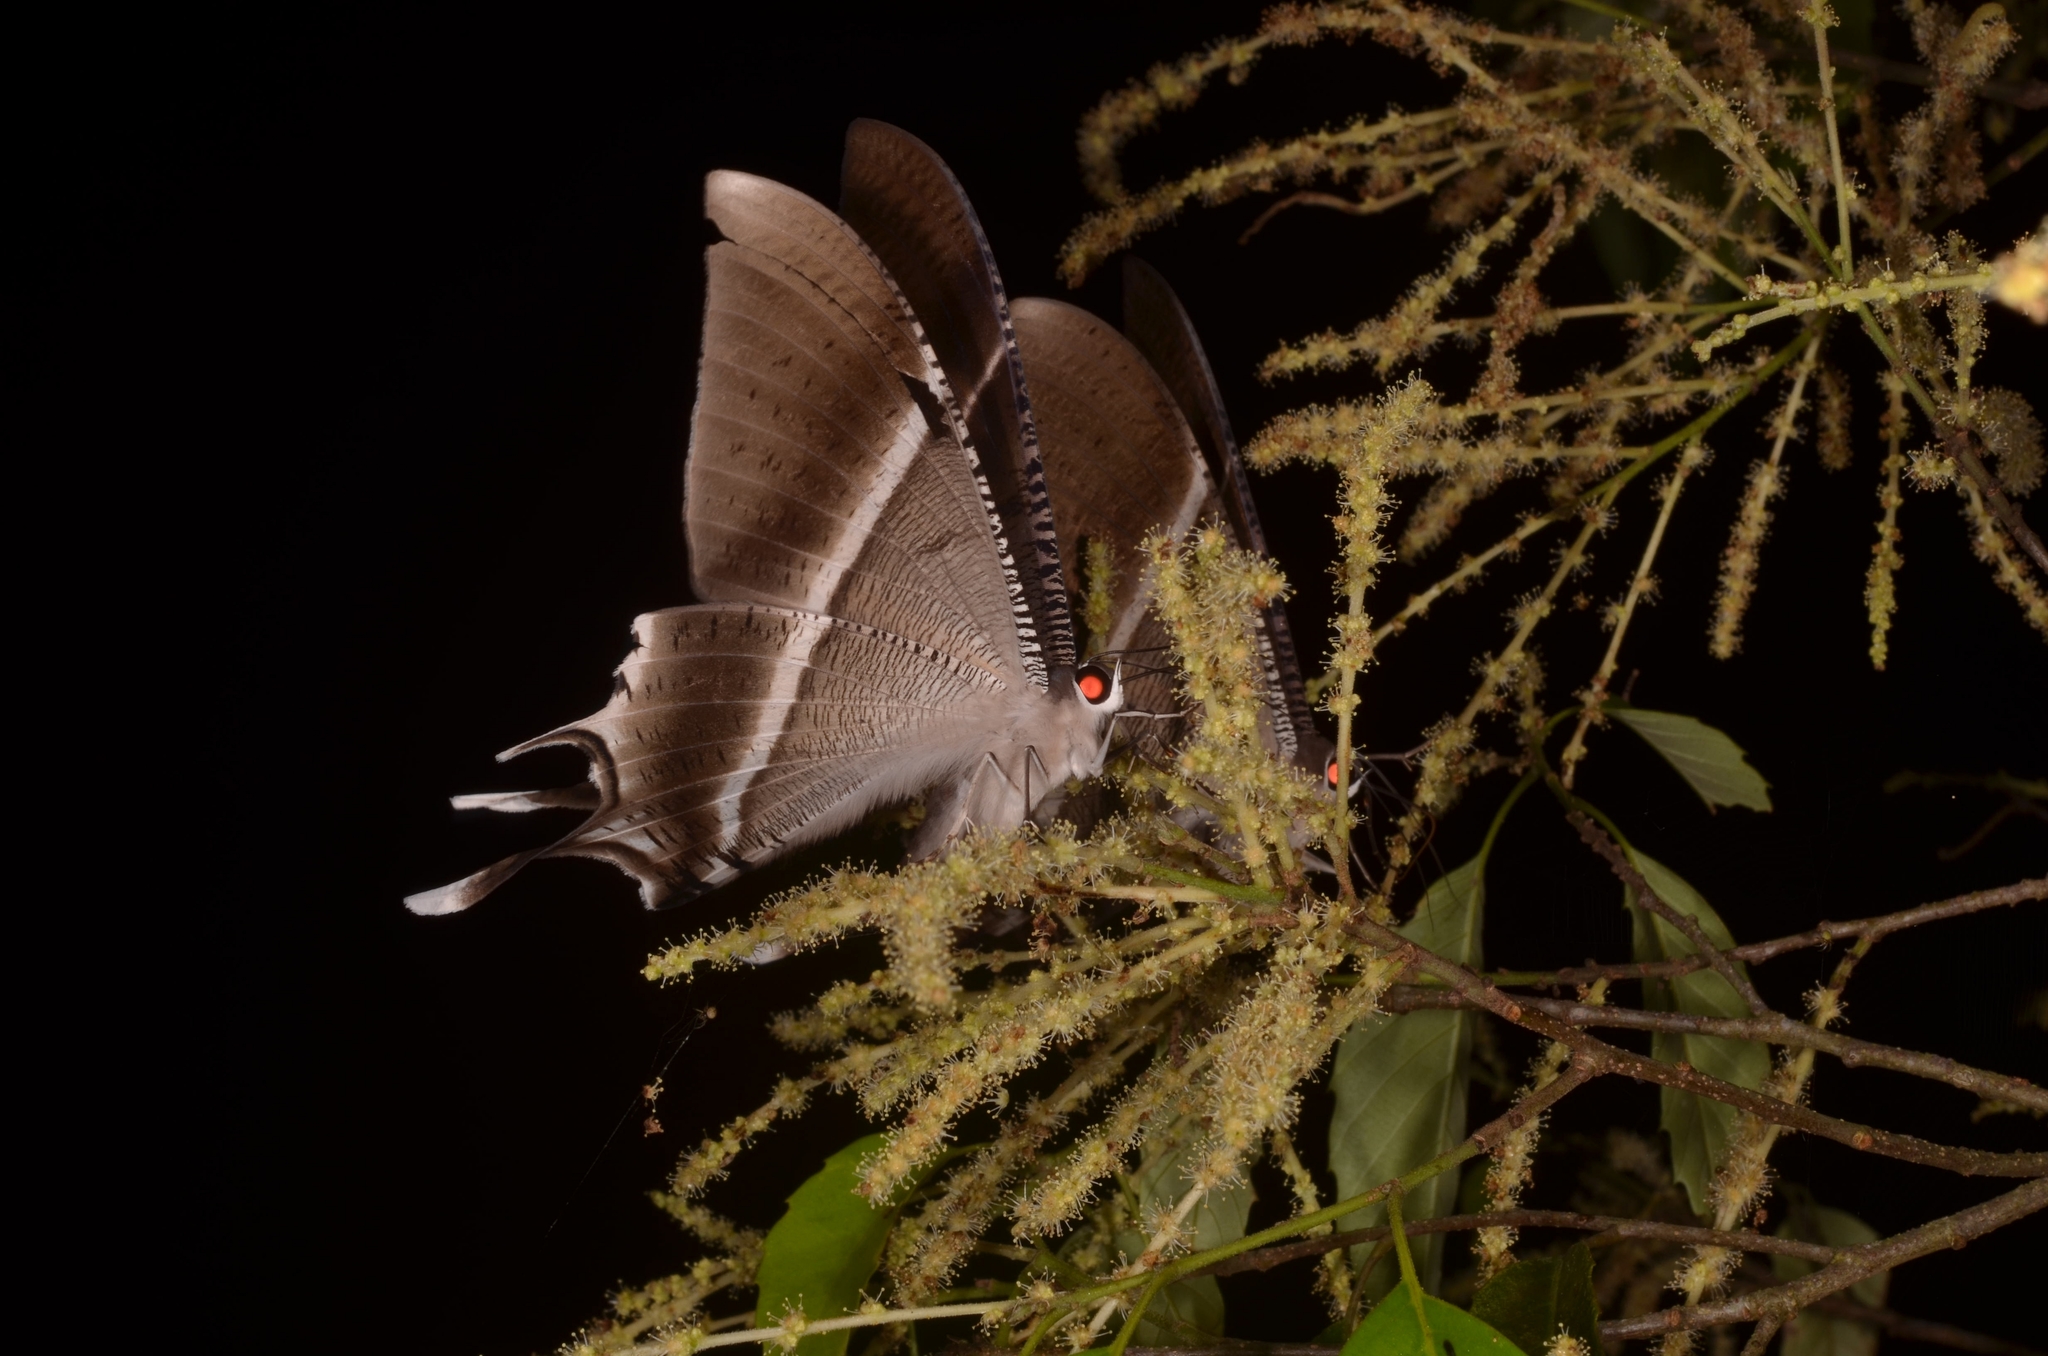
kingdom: Animalia
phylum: Arthropoda
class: Insecta
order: Lepidoptera
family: Uraniidae
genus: Lyssa
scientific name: Lyssa zampa
